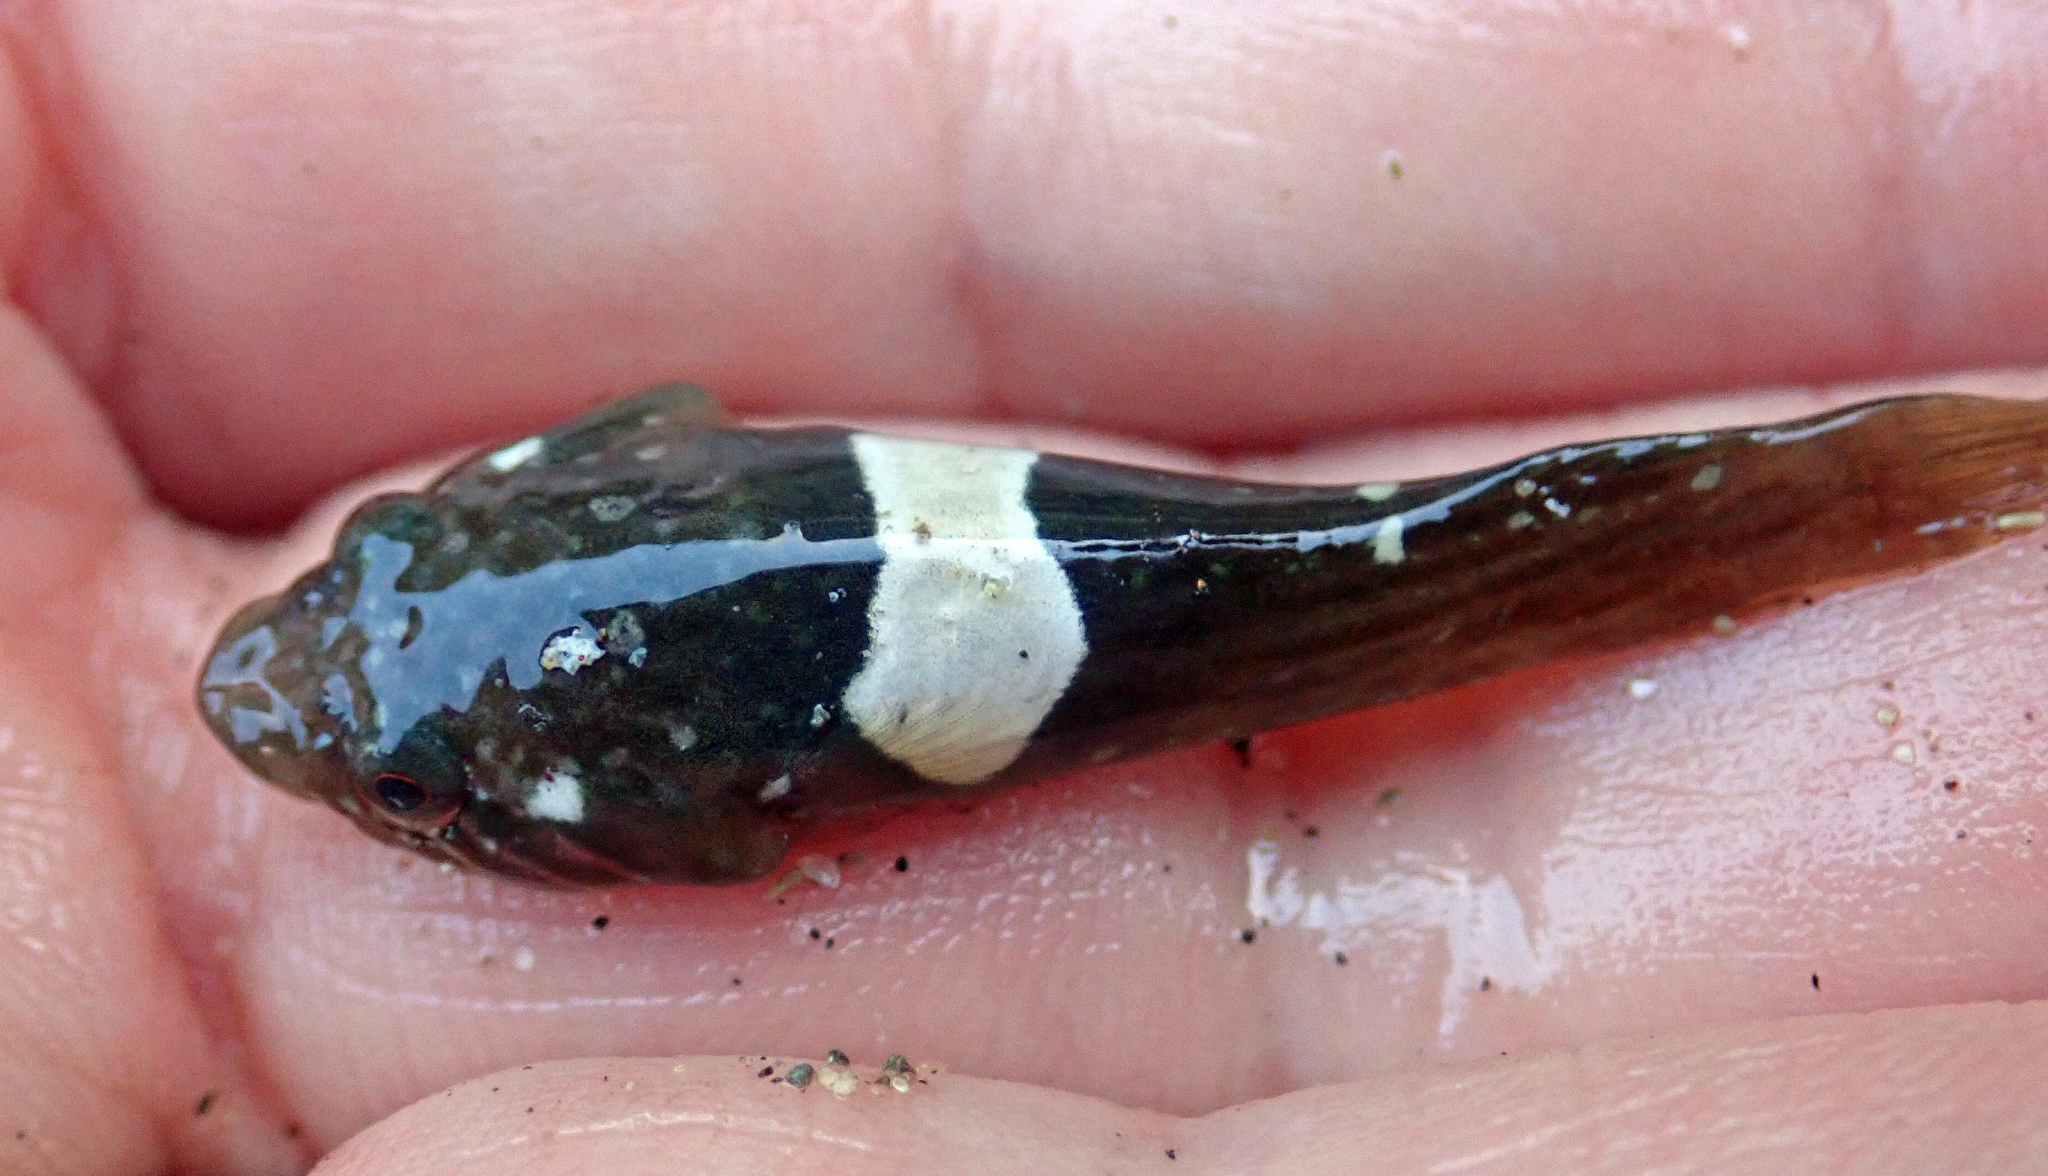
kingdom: Animalia
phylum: Chordata
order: Gobiesociformes
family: Gobiesocidae
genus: Trachelochismus
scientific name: Trachelochismus pinnulatus
